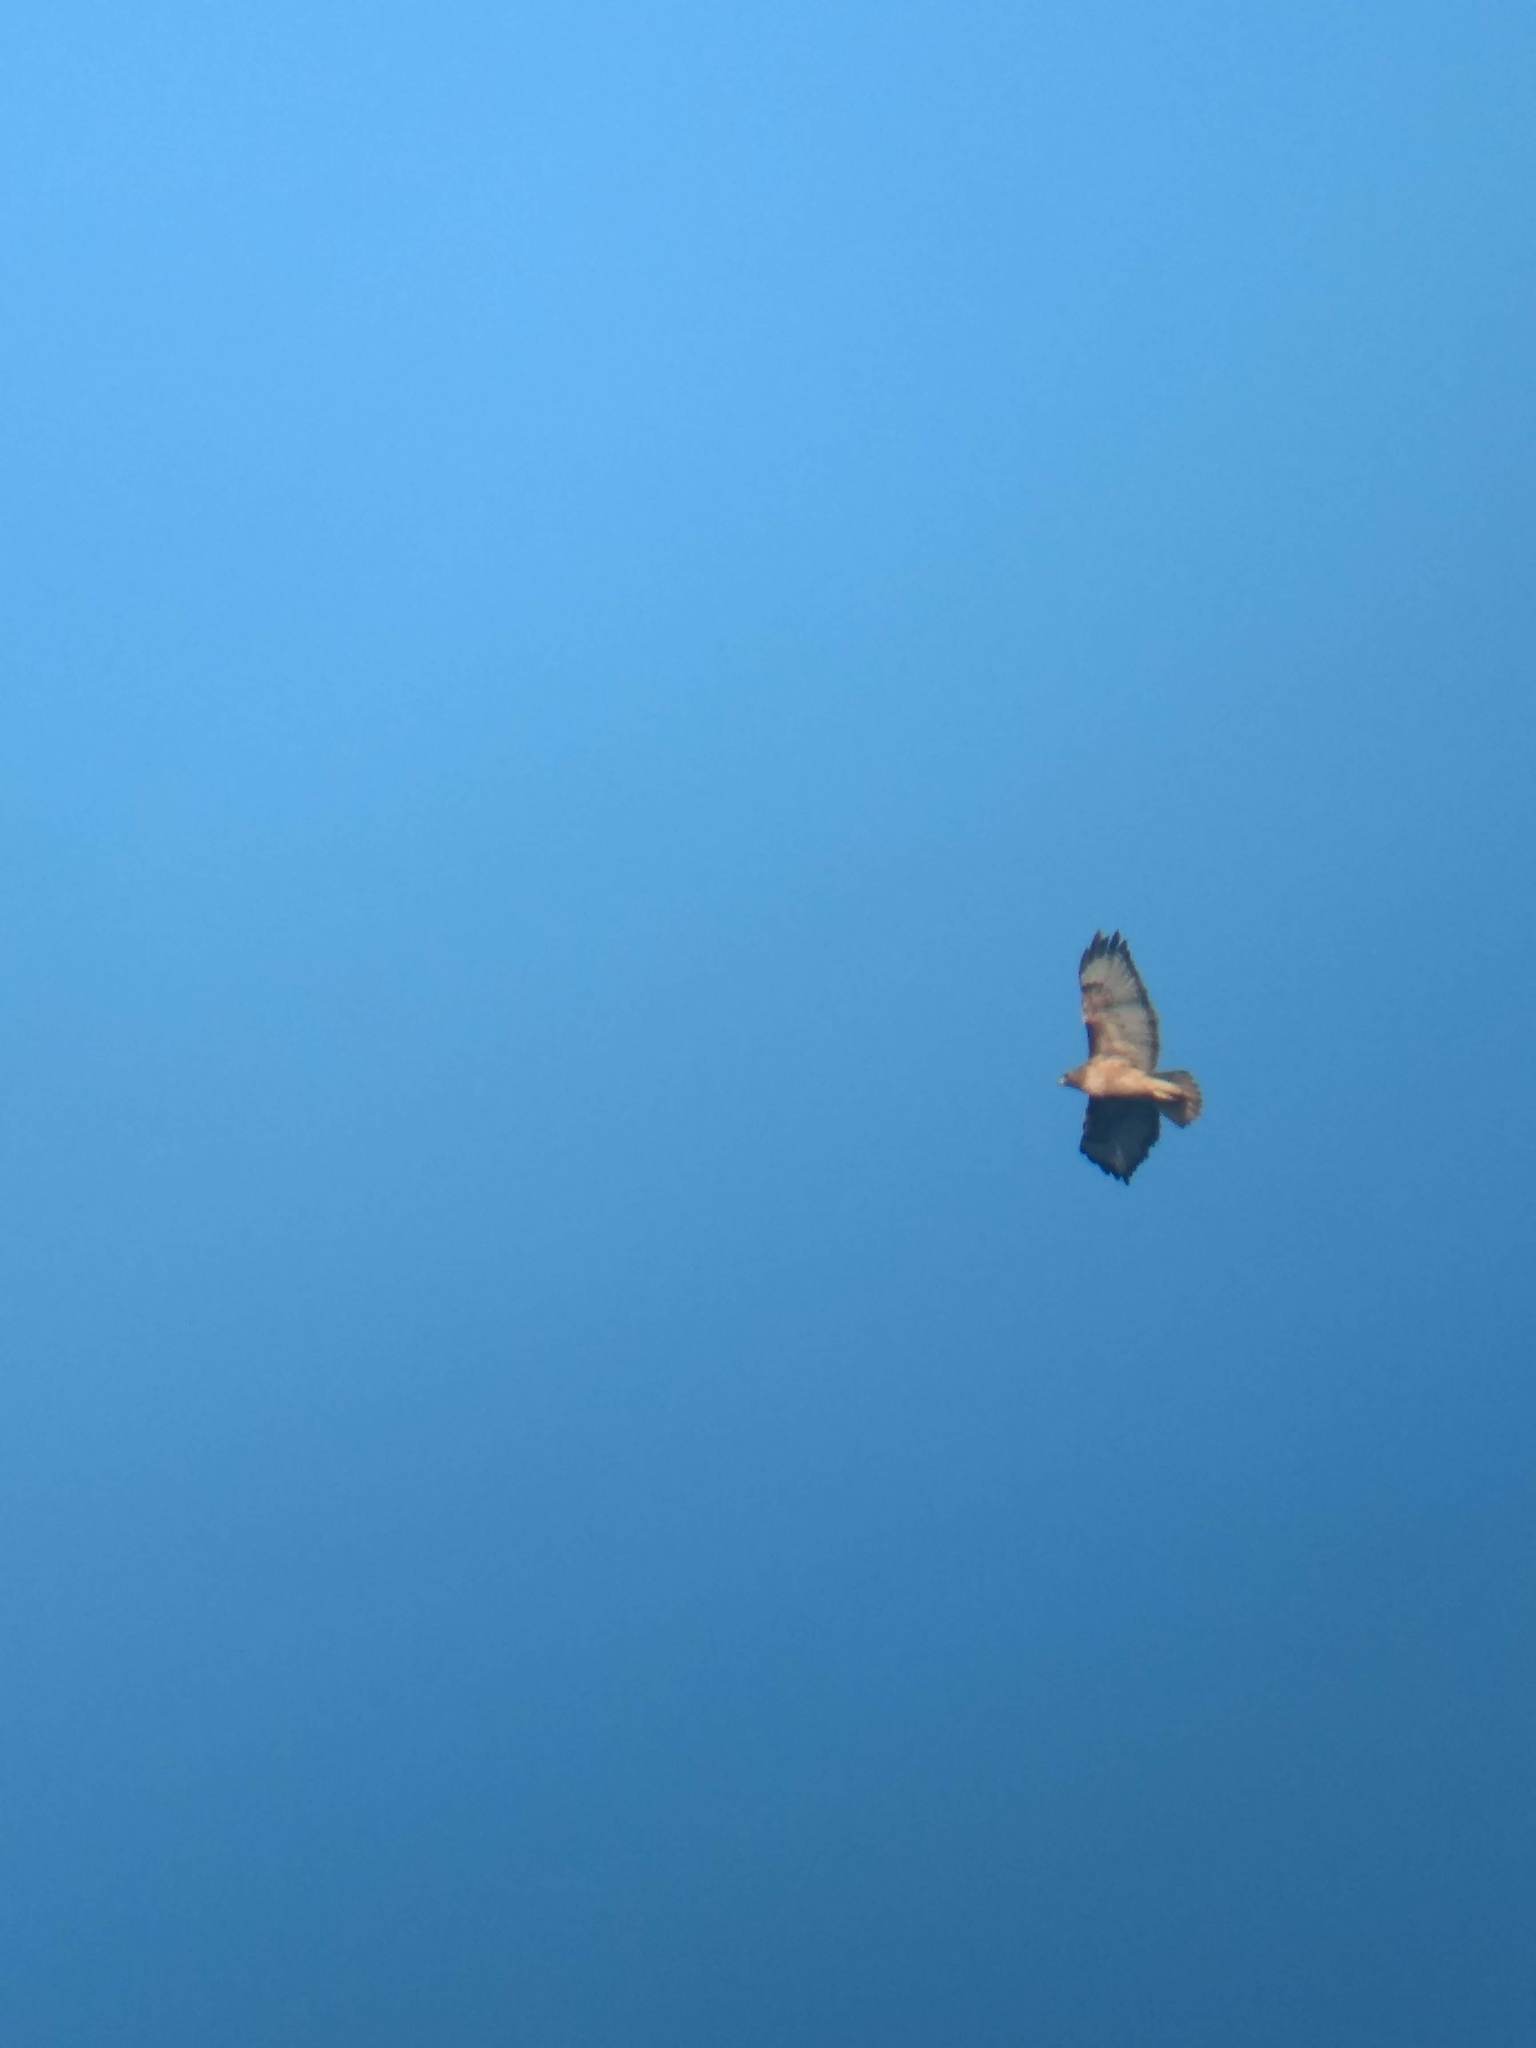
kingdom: Animalia
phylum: Chordata
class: Aves
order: Accipitriformes
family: Accipitridae
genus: Buteo
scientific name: Buteo jamaicensis
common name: Red-tailed hawk
